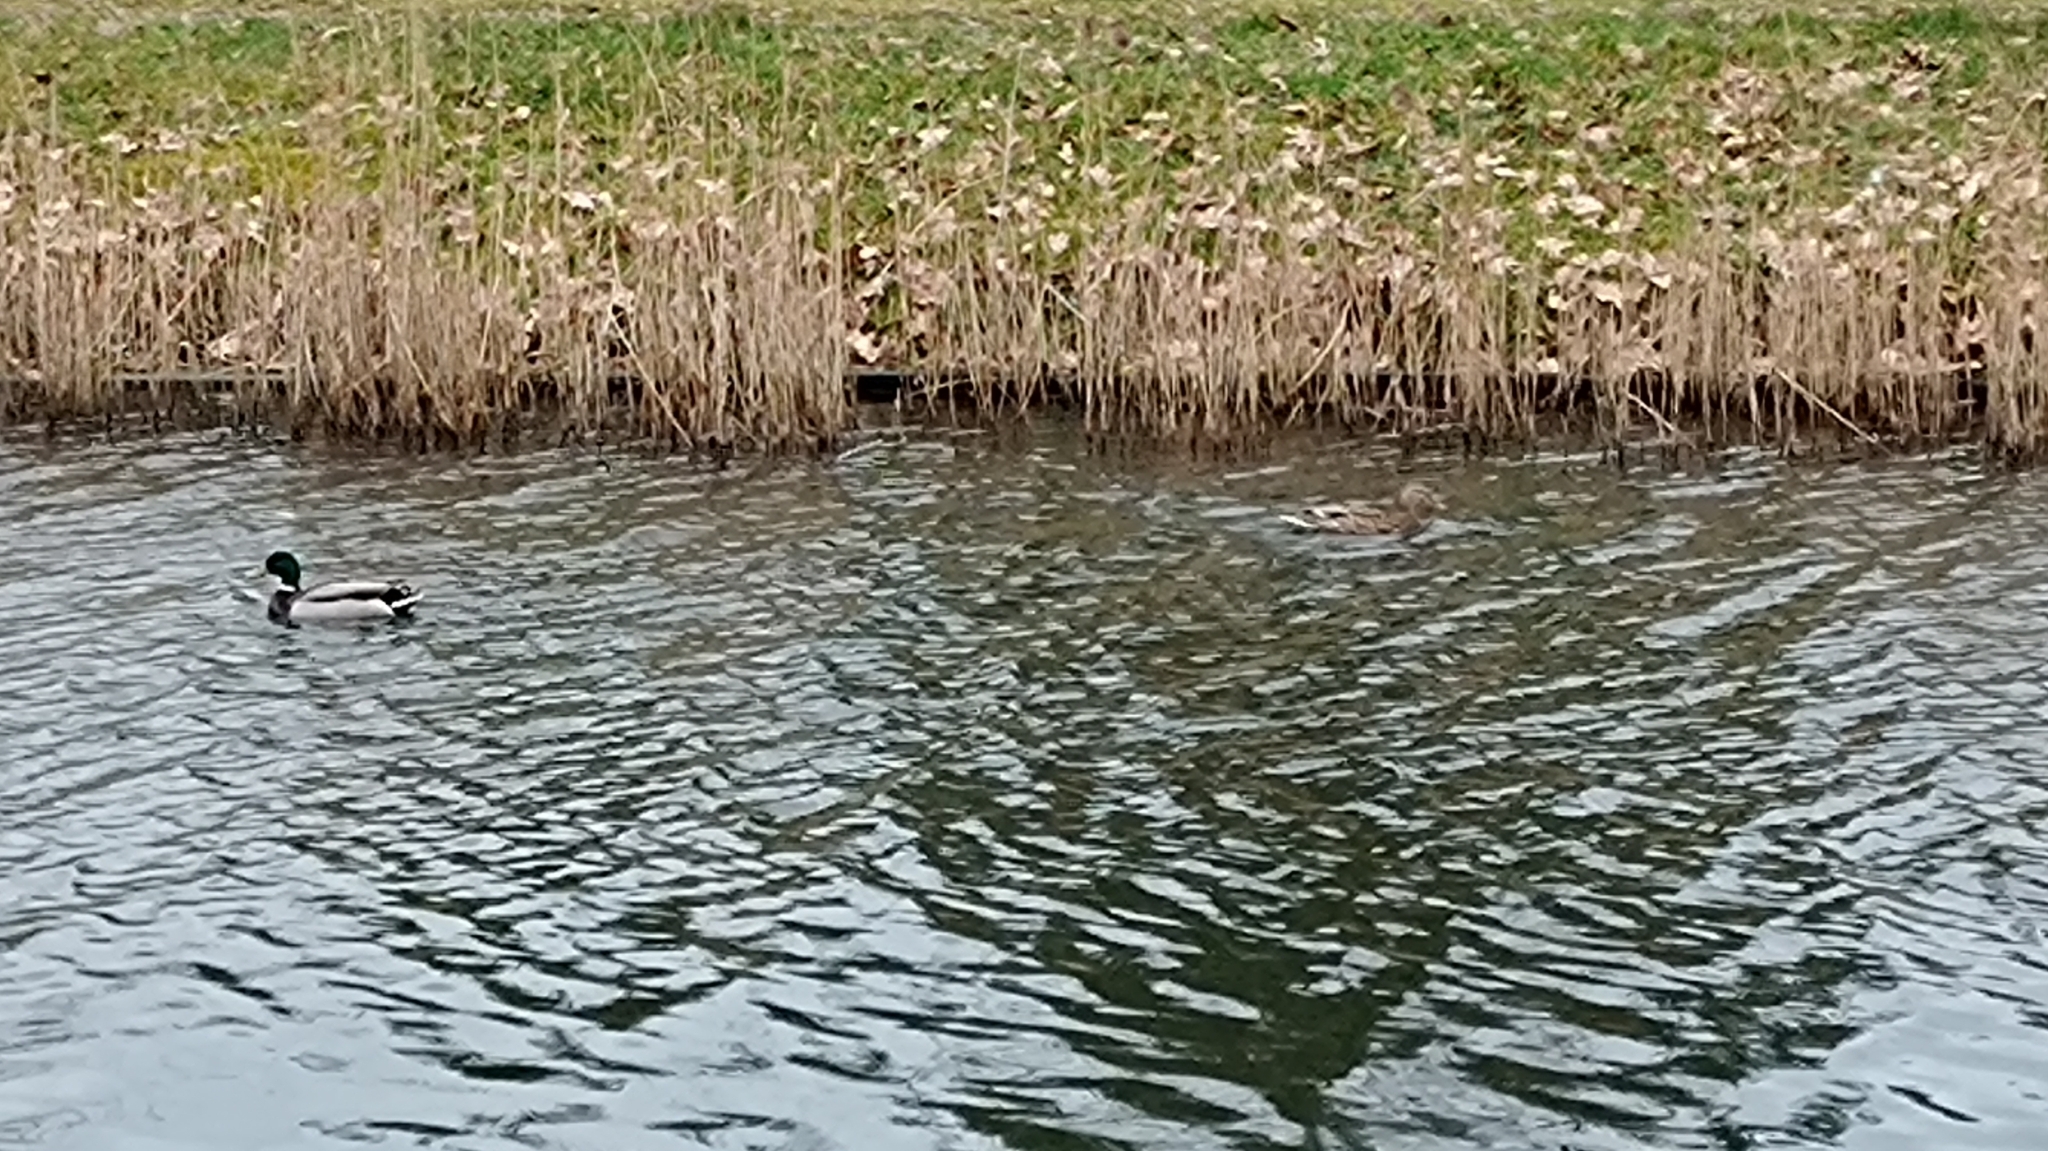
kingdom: Animalia
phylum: Chordata
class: Aves
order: Anseriformes
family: Anatidae
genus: Anas
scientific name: Anas platyrhynchos
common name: Mallard
